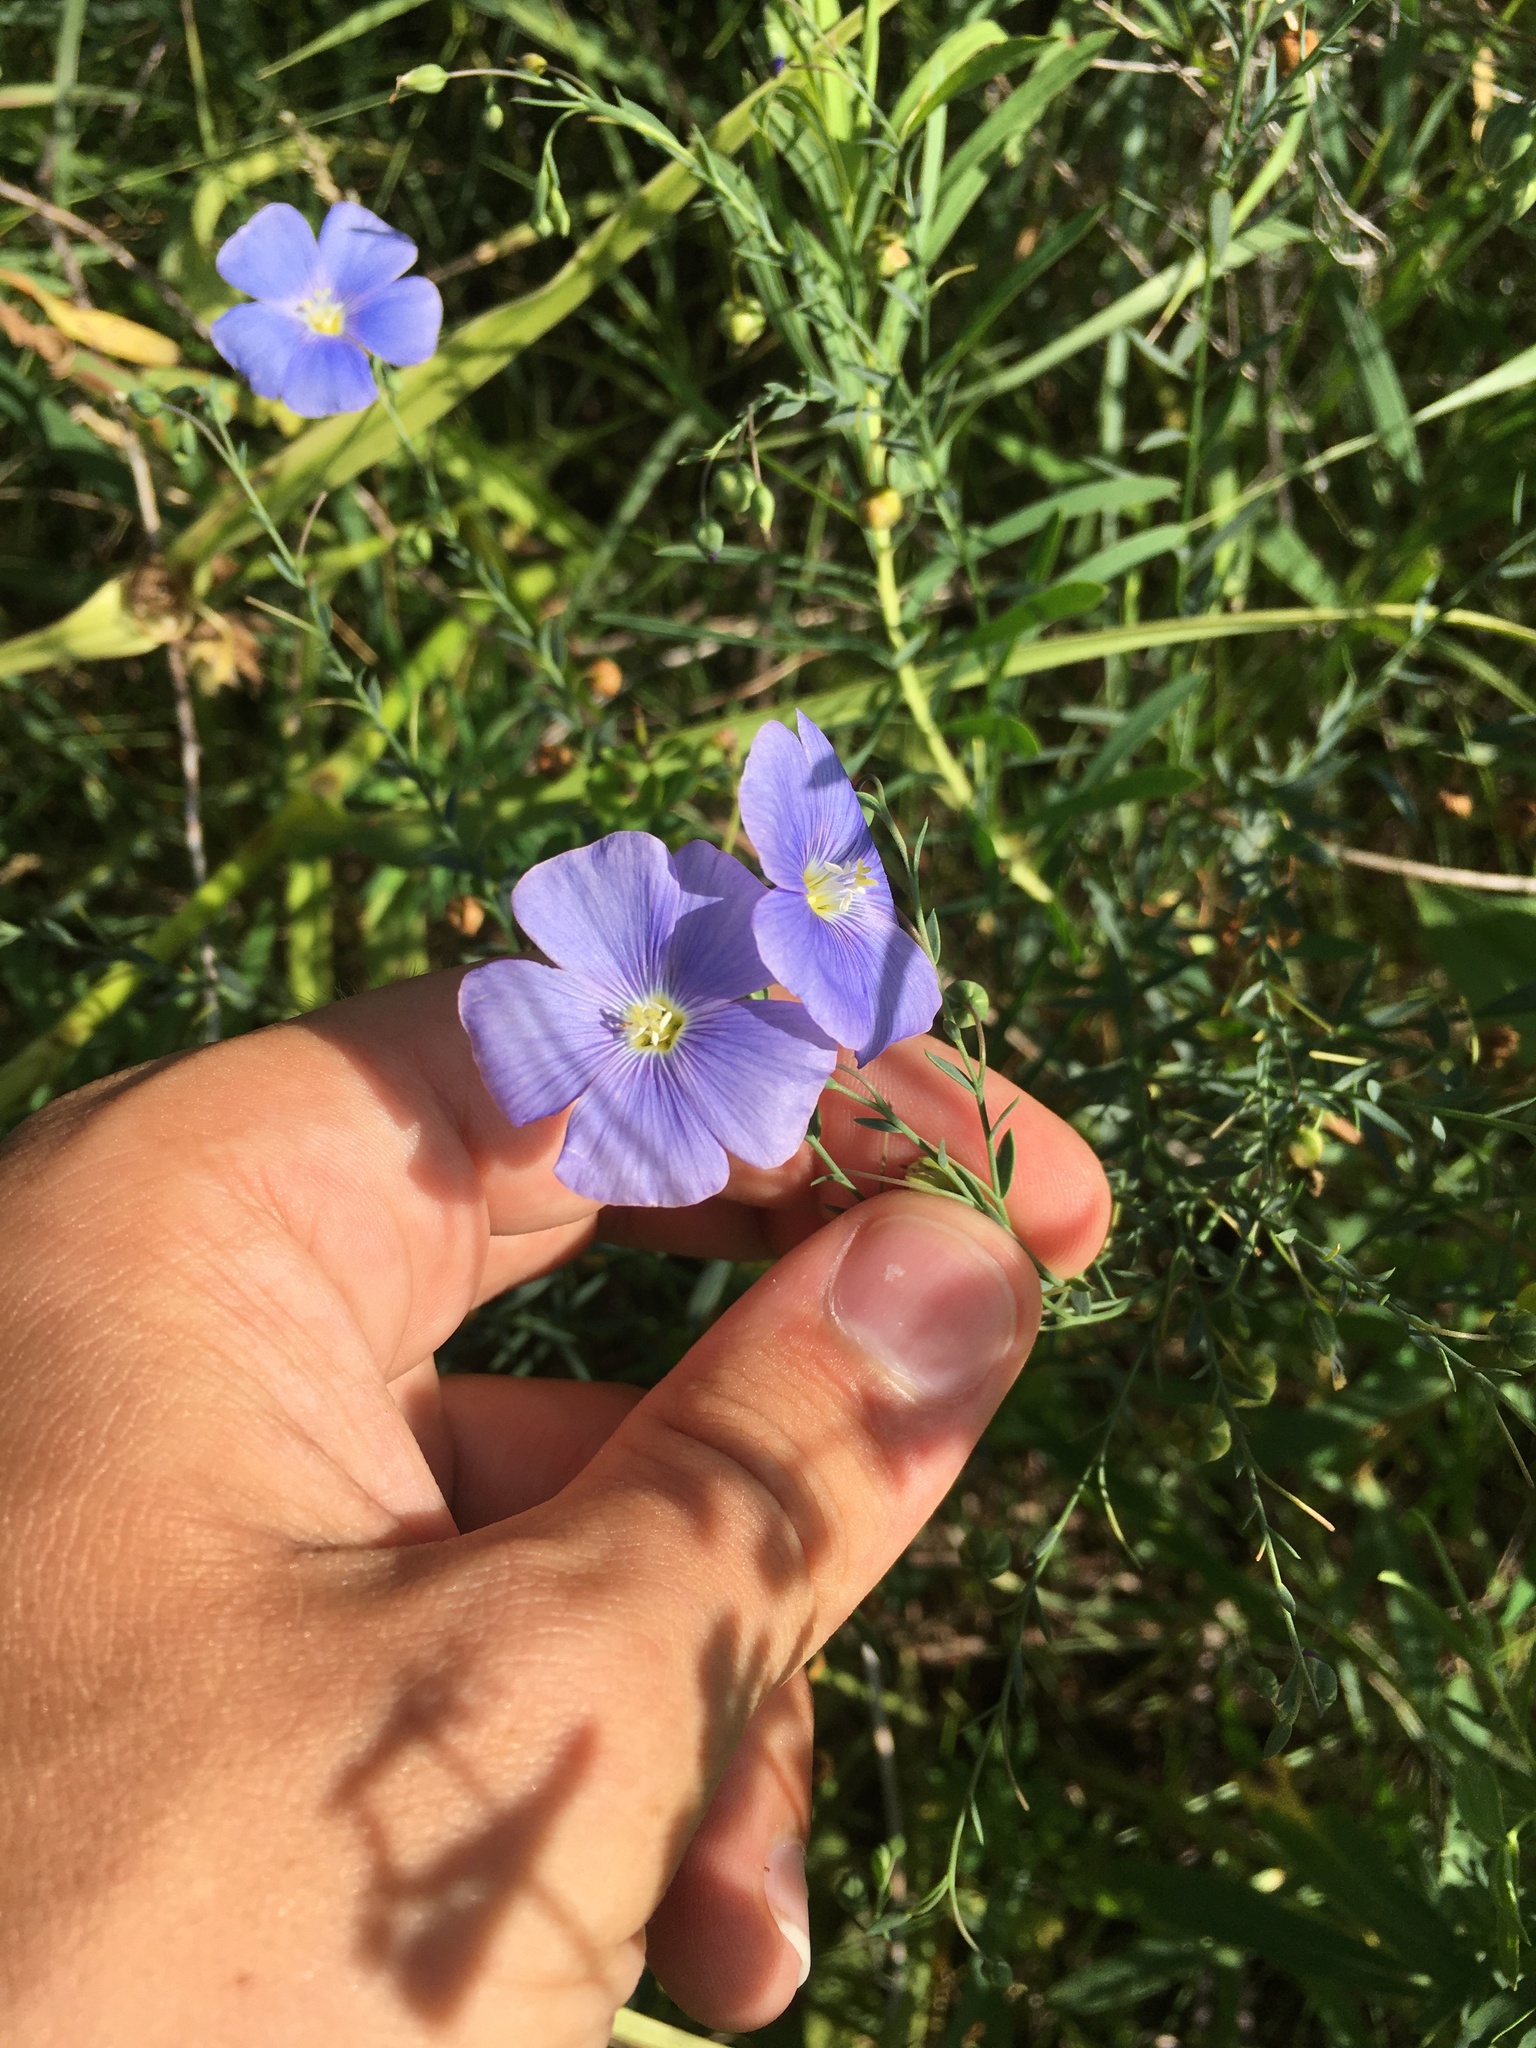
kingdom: Plantae
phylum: Tracheophyta
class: Magnoliopsida
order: Malpighiales
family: Linaceae
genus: Linum
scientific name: Linum usitatissimum
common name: Flax
